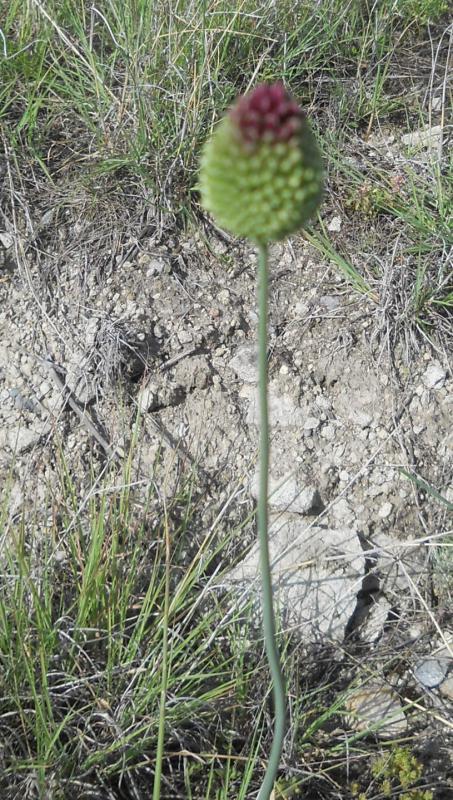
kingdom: Plantae
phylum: Tracheophyta
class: Liliopsida
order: Asparagales
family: Amaryllidaceae
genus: Allium
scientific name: Allium sphaerocephalon
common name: Round-headed leek
